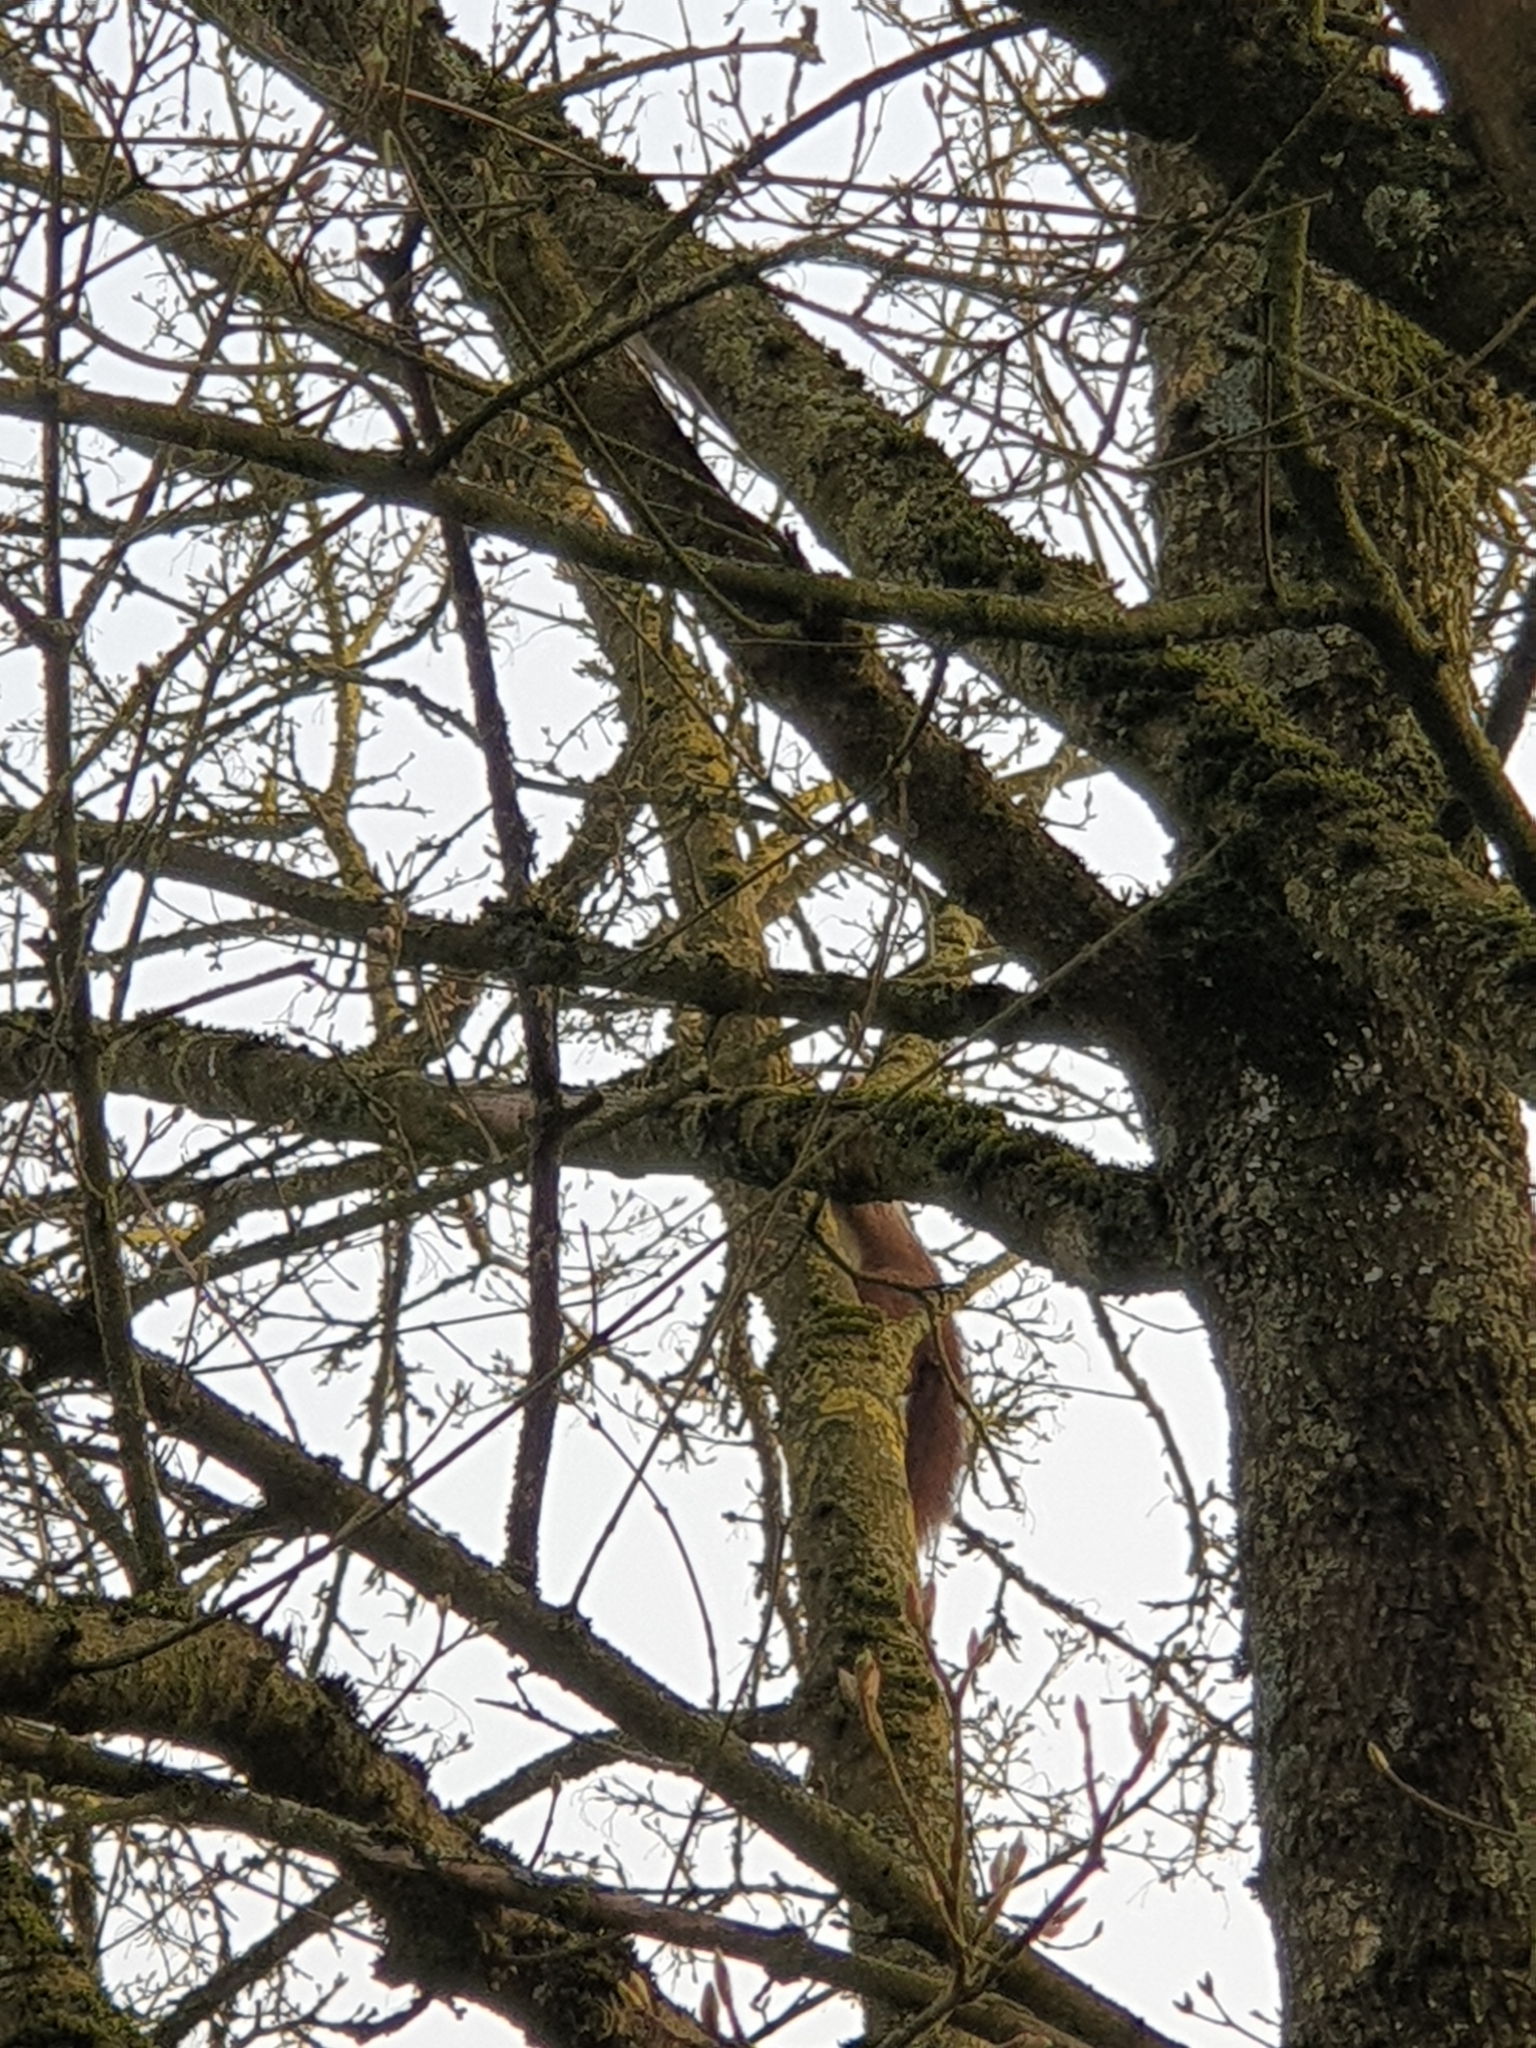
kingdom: Animalia
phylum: Chordata
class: Mammalia
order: Rodentia
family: Sciuridae
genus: Sciurus
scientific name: Sciurus vulgaris
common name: Eurasian red squirrel
